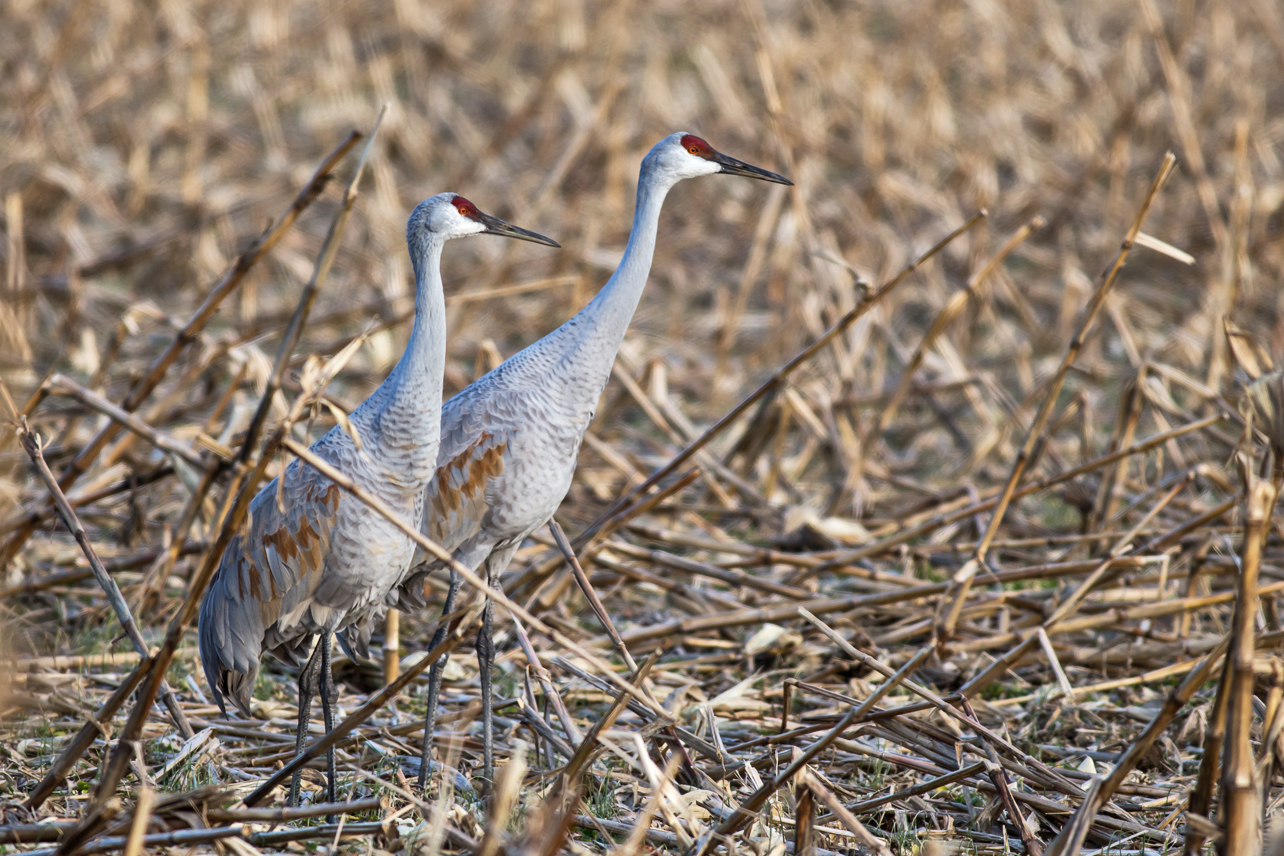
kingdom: Animalia
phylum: Chordata
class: Aves
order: Gruiformes
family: Gruidae
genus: Grus
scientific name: Grus canadensis
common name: Sandhill crane
